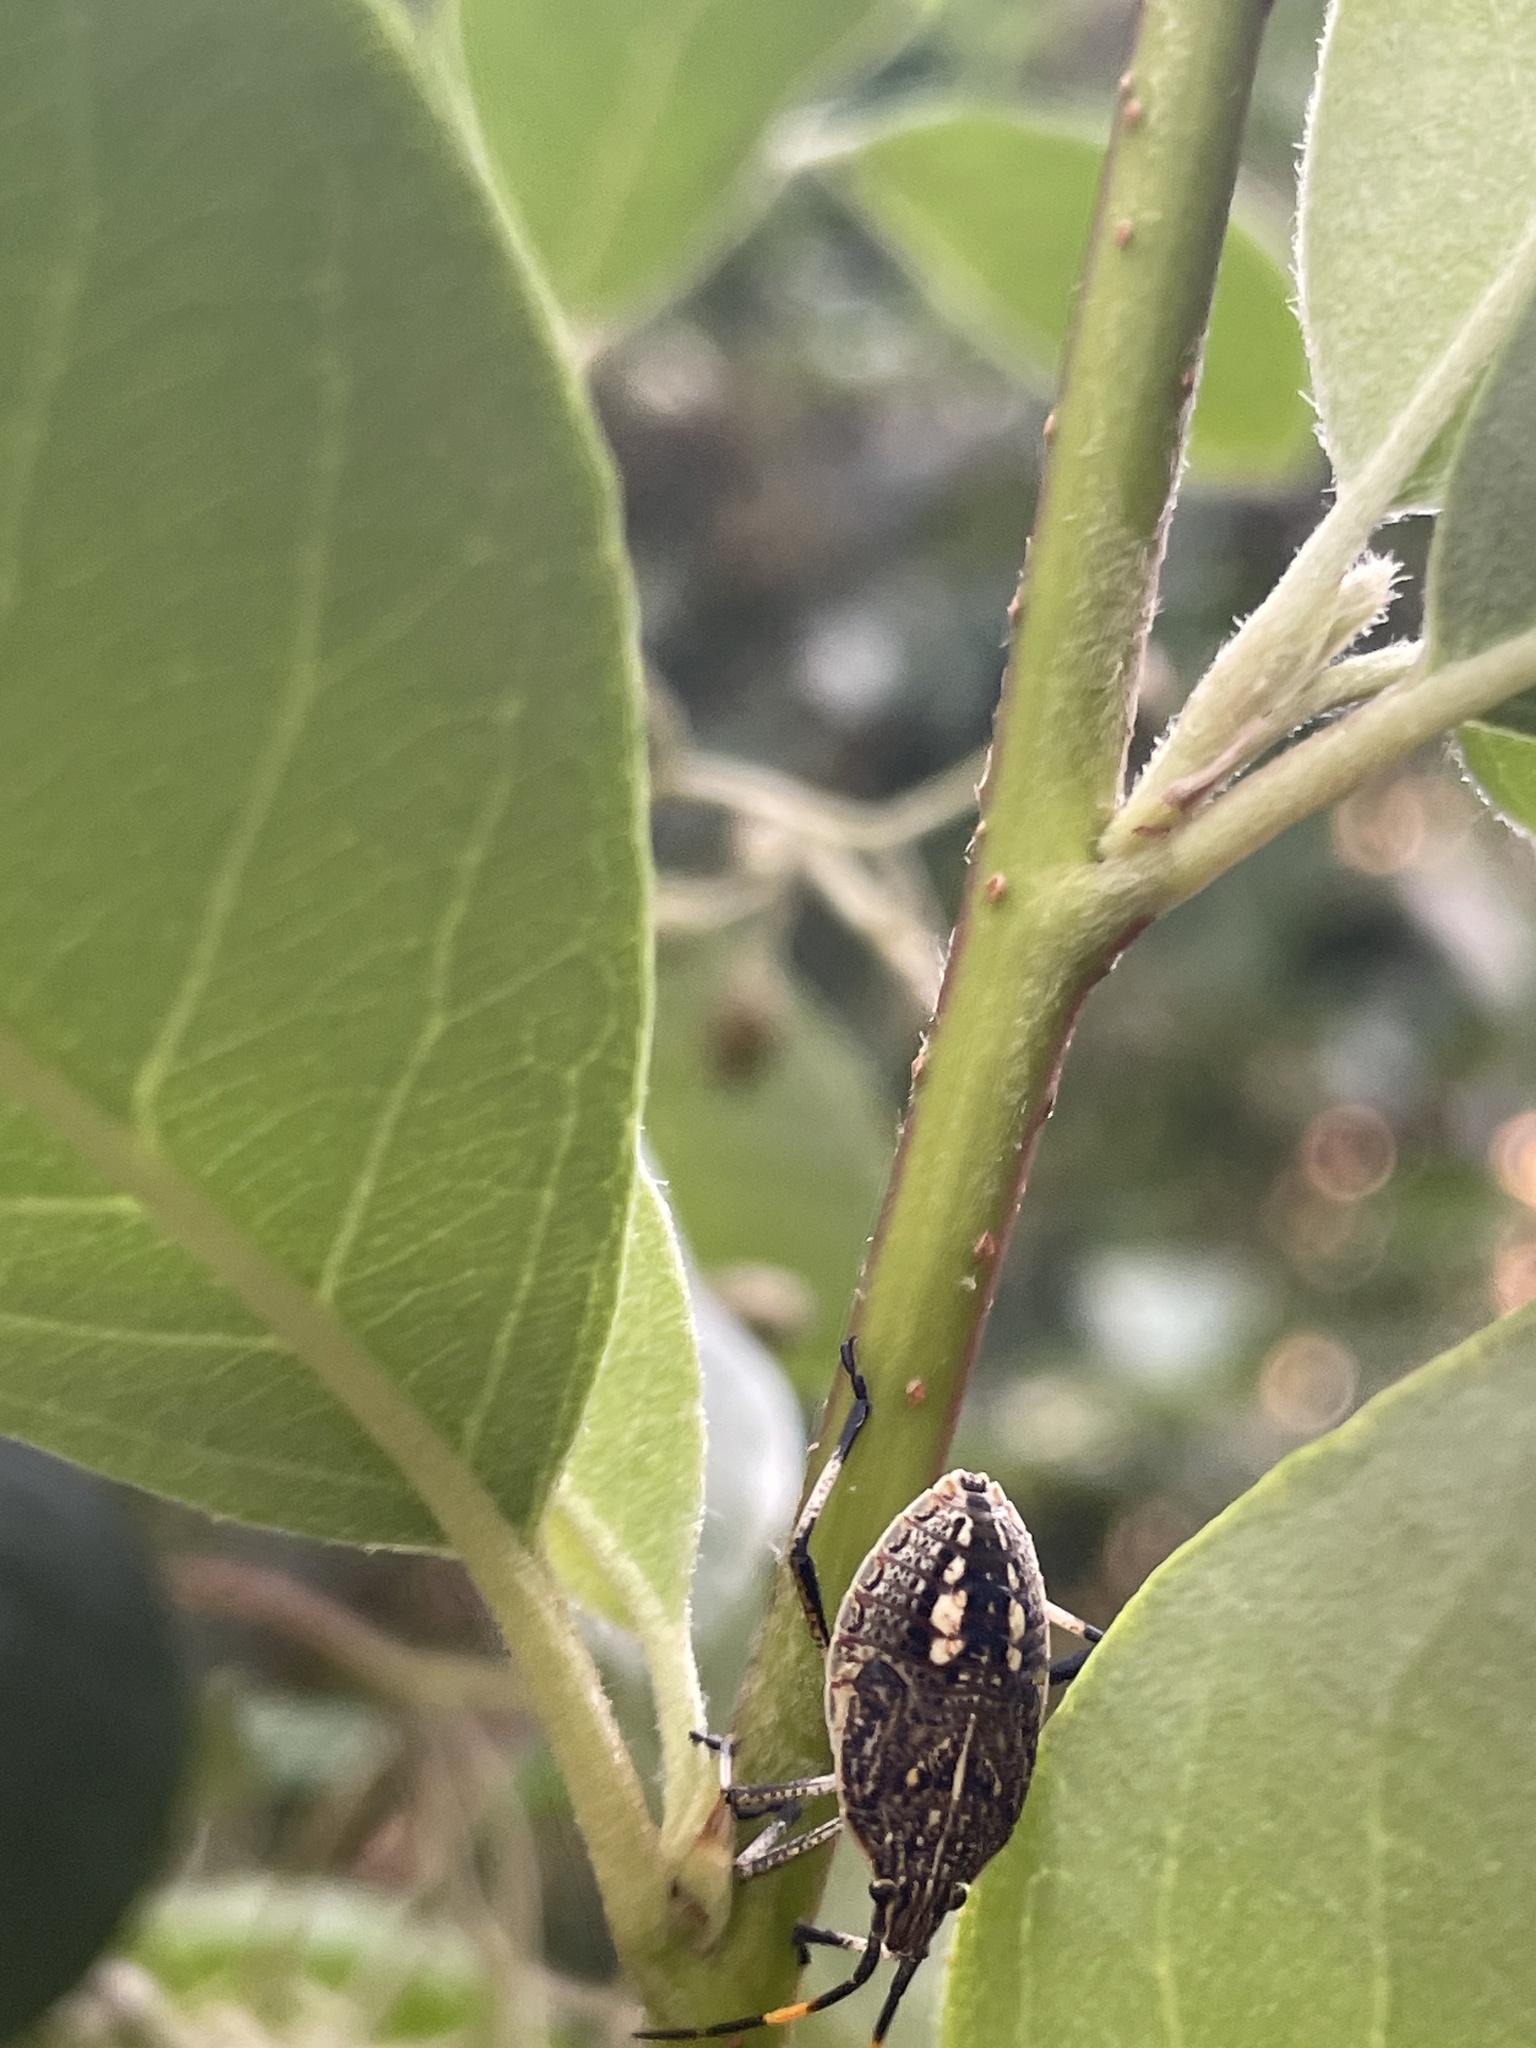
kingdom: Animalia
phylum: Arthropoda
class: Insecta
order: Hemiptera
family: Pentatomidae
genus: Poecilometis
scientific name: Poecilometis
